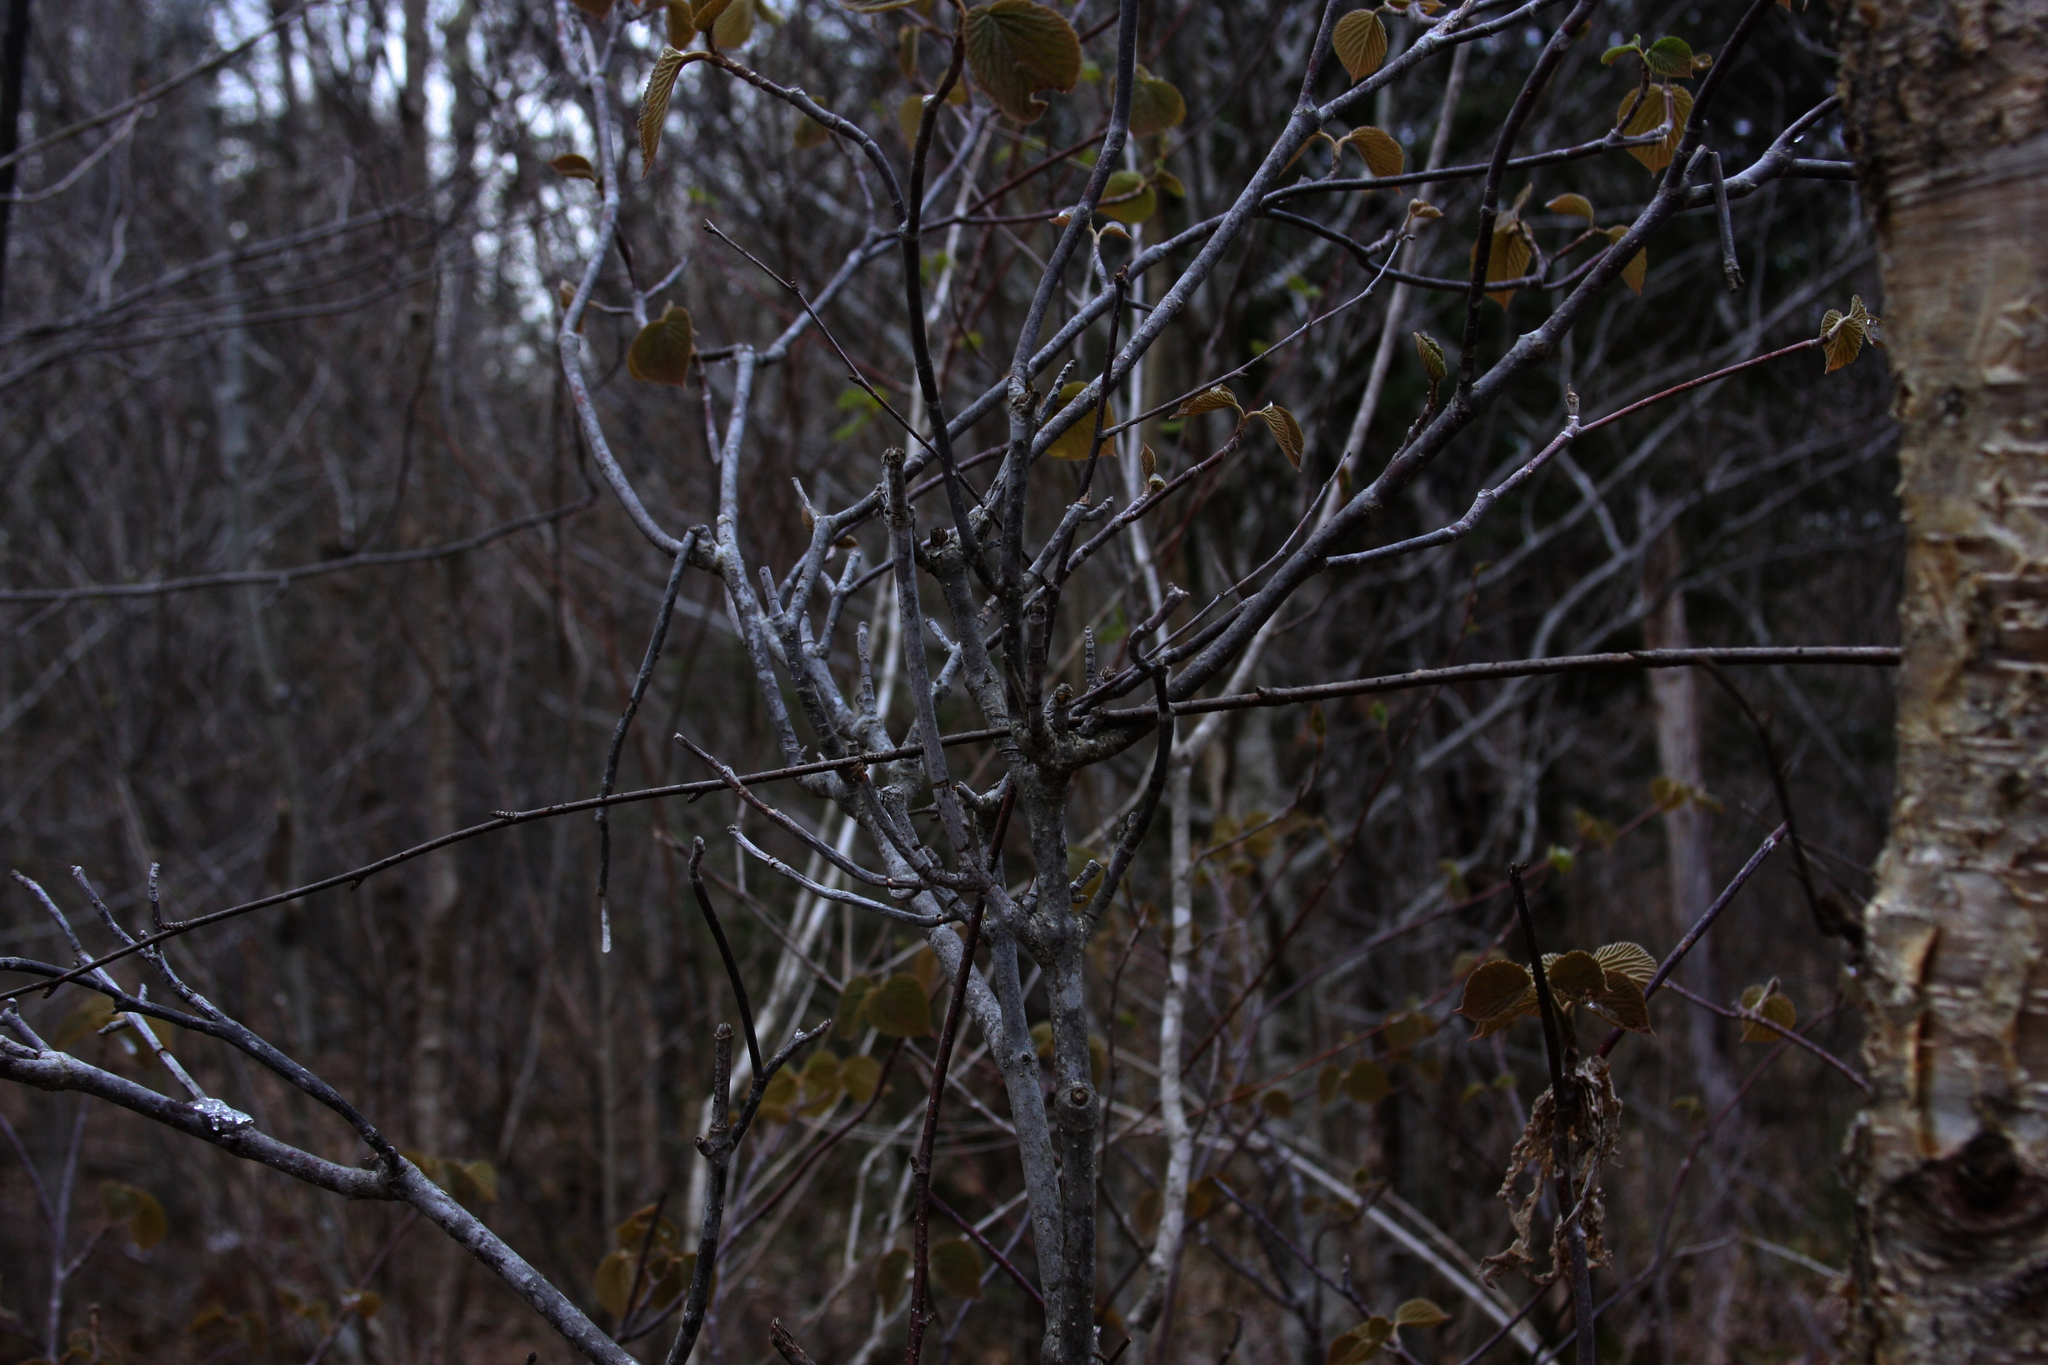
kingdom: Plantae
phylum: Tracheophyta
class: Magnoliopsida
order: Dipsacales
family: Viburnaceae
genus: Viburnum
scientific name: Viburnum lantanoides
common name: Hobblebush
